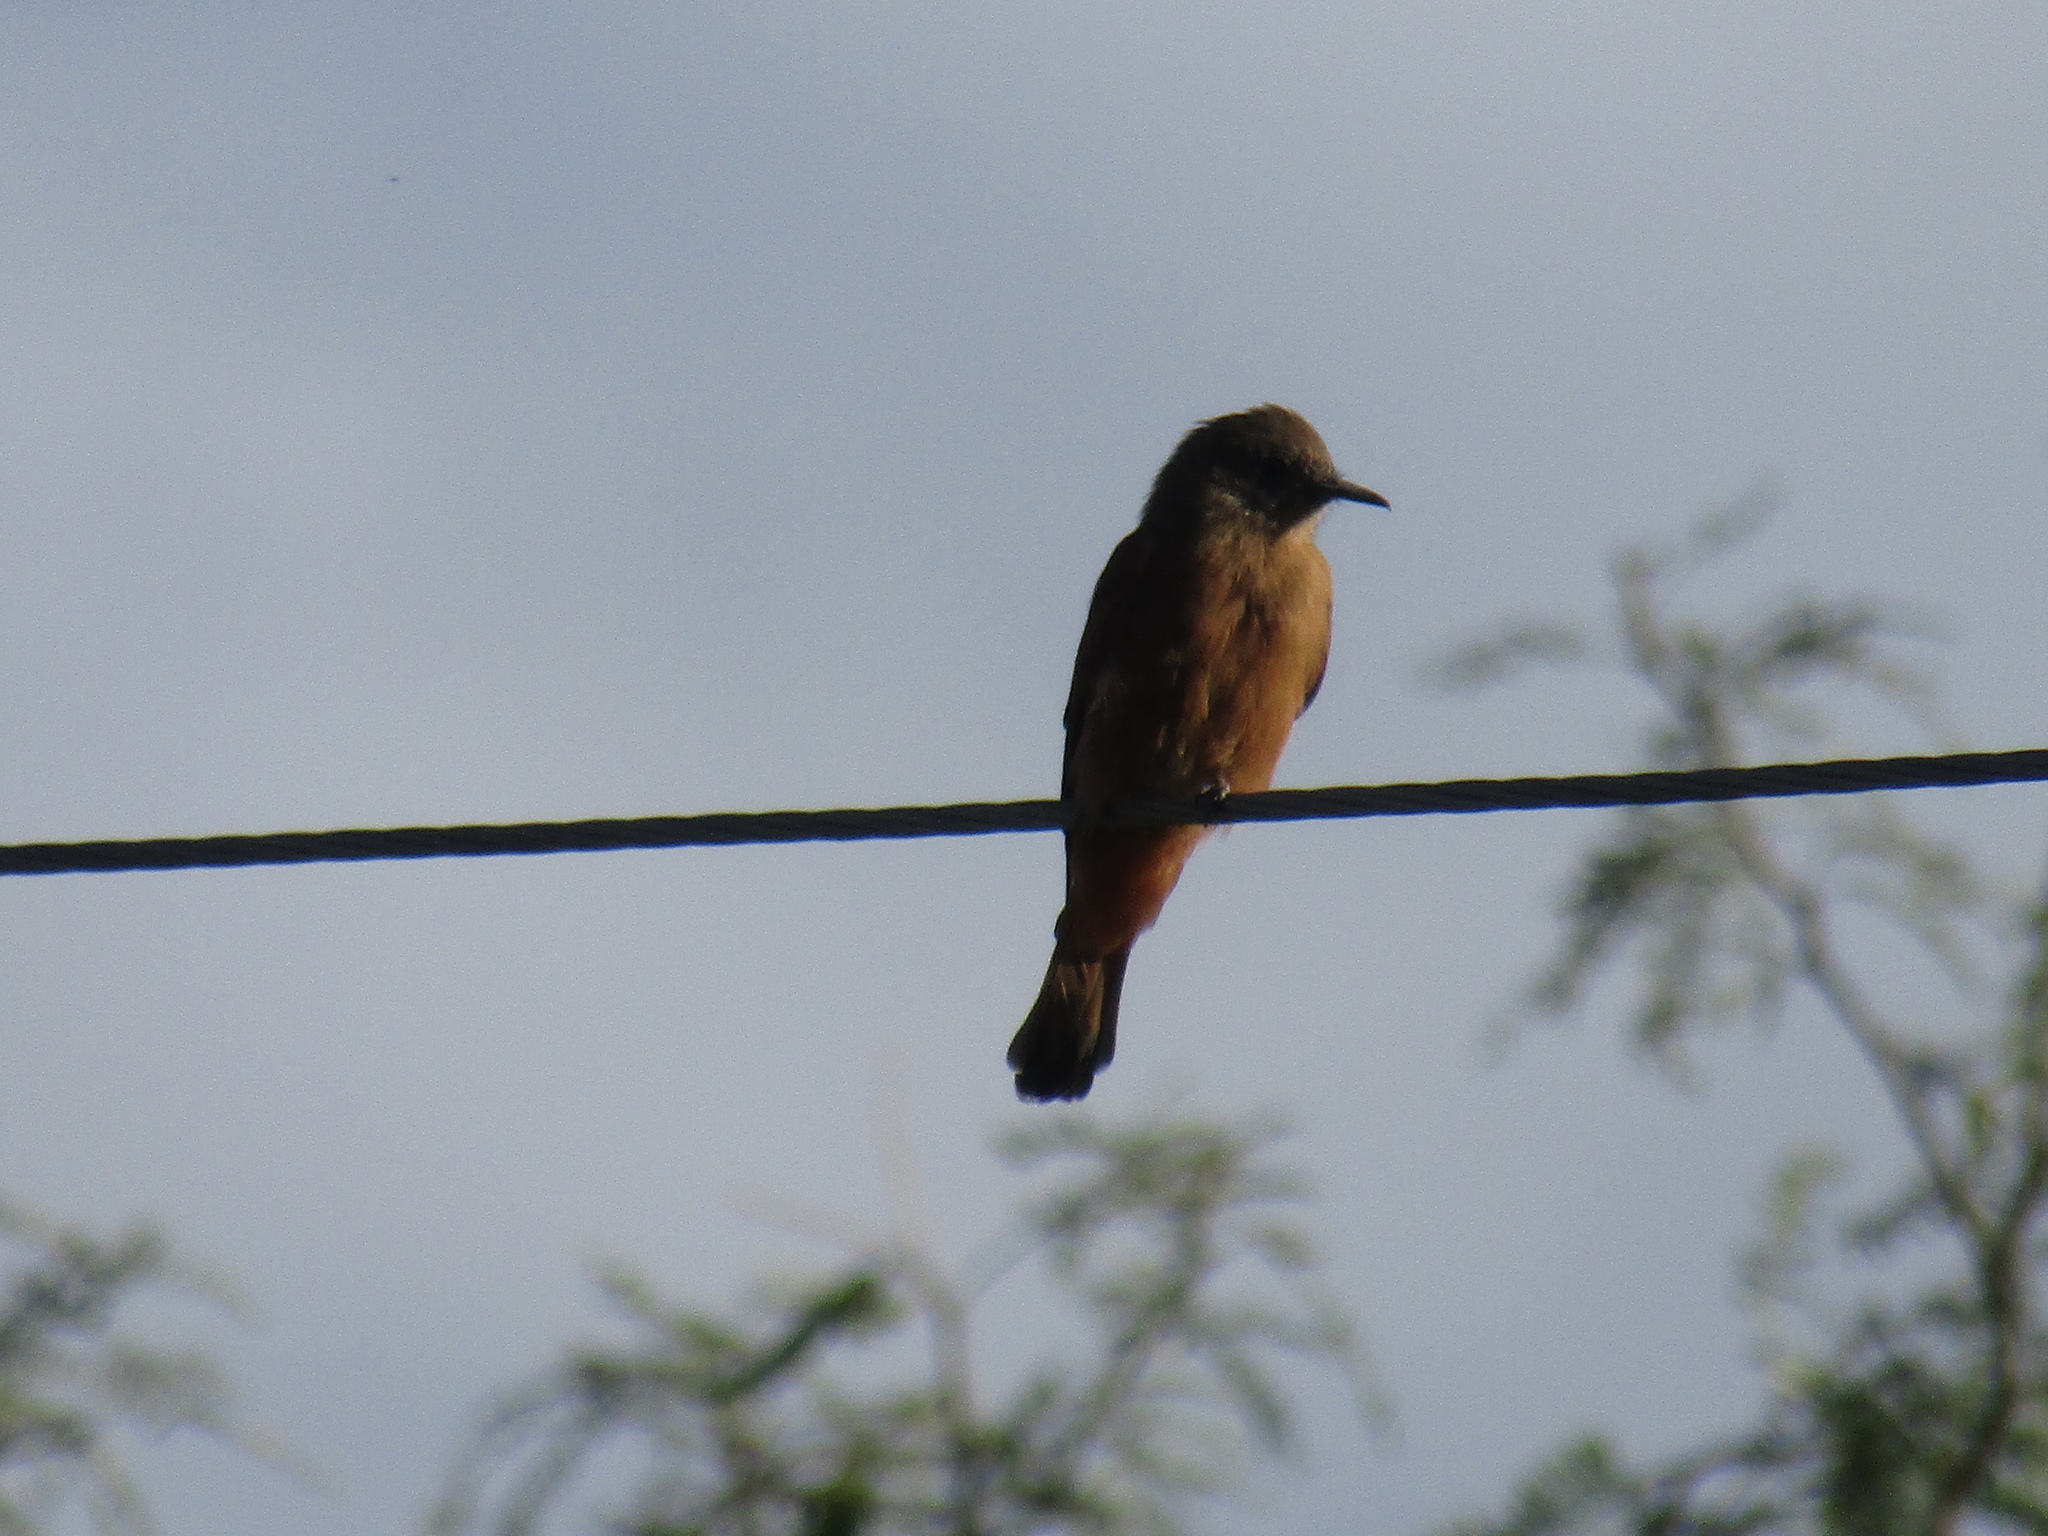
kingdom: Animalia
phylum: Chordata
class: Aves
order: Passeriformes
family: Tyrannidae
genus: Hirundinea
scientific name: Hirundinea ferruginea
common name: Cliff flycatcher
